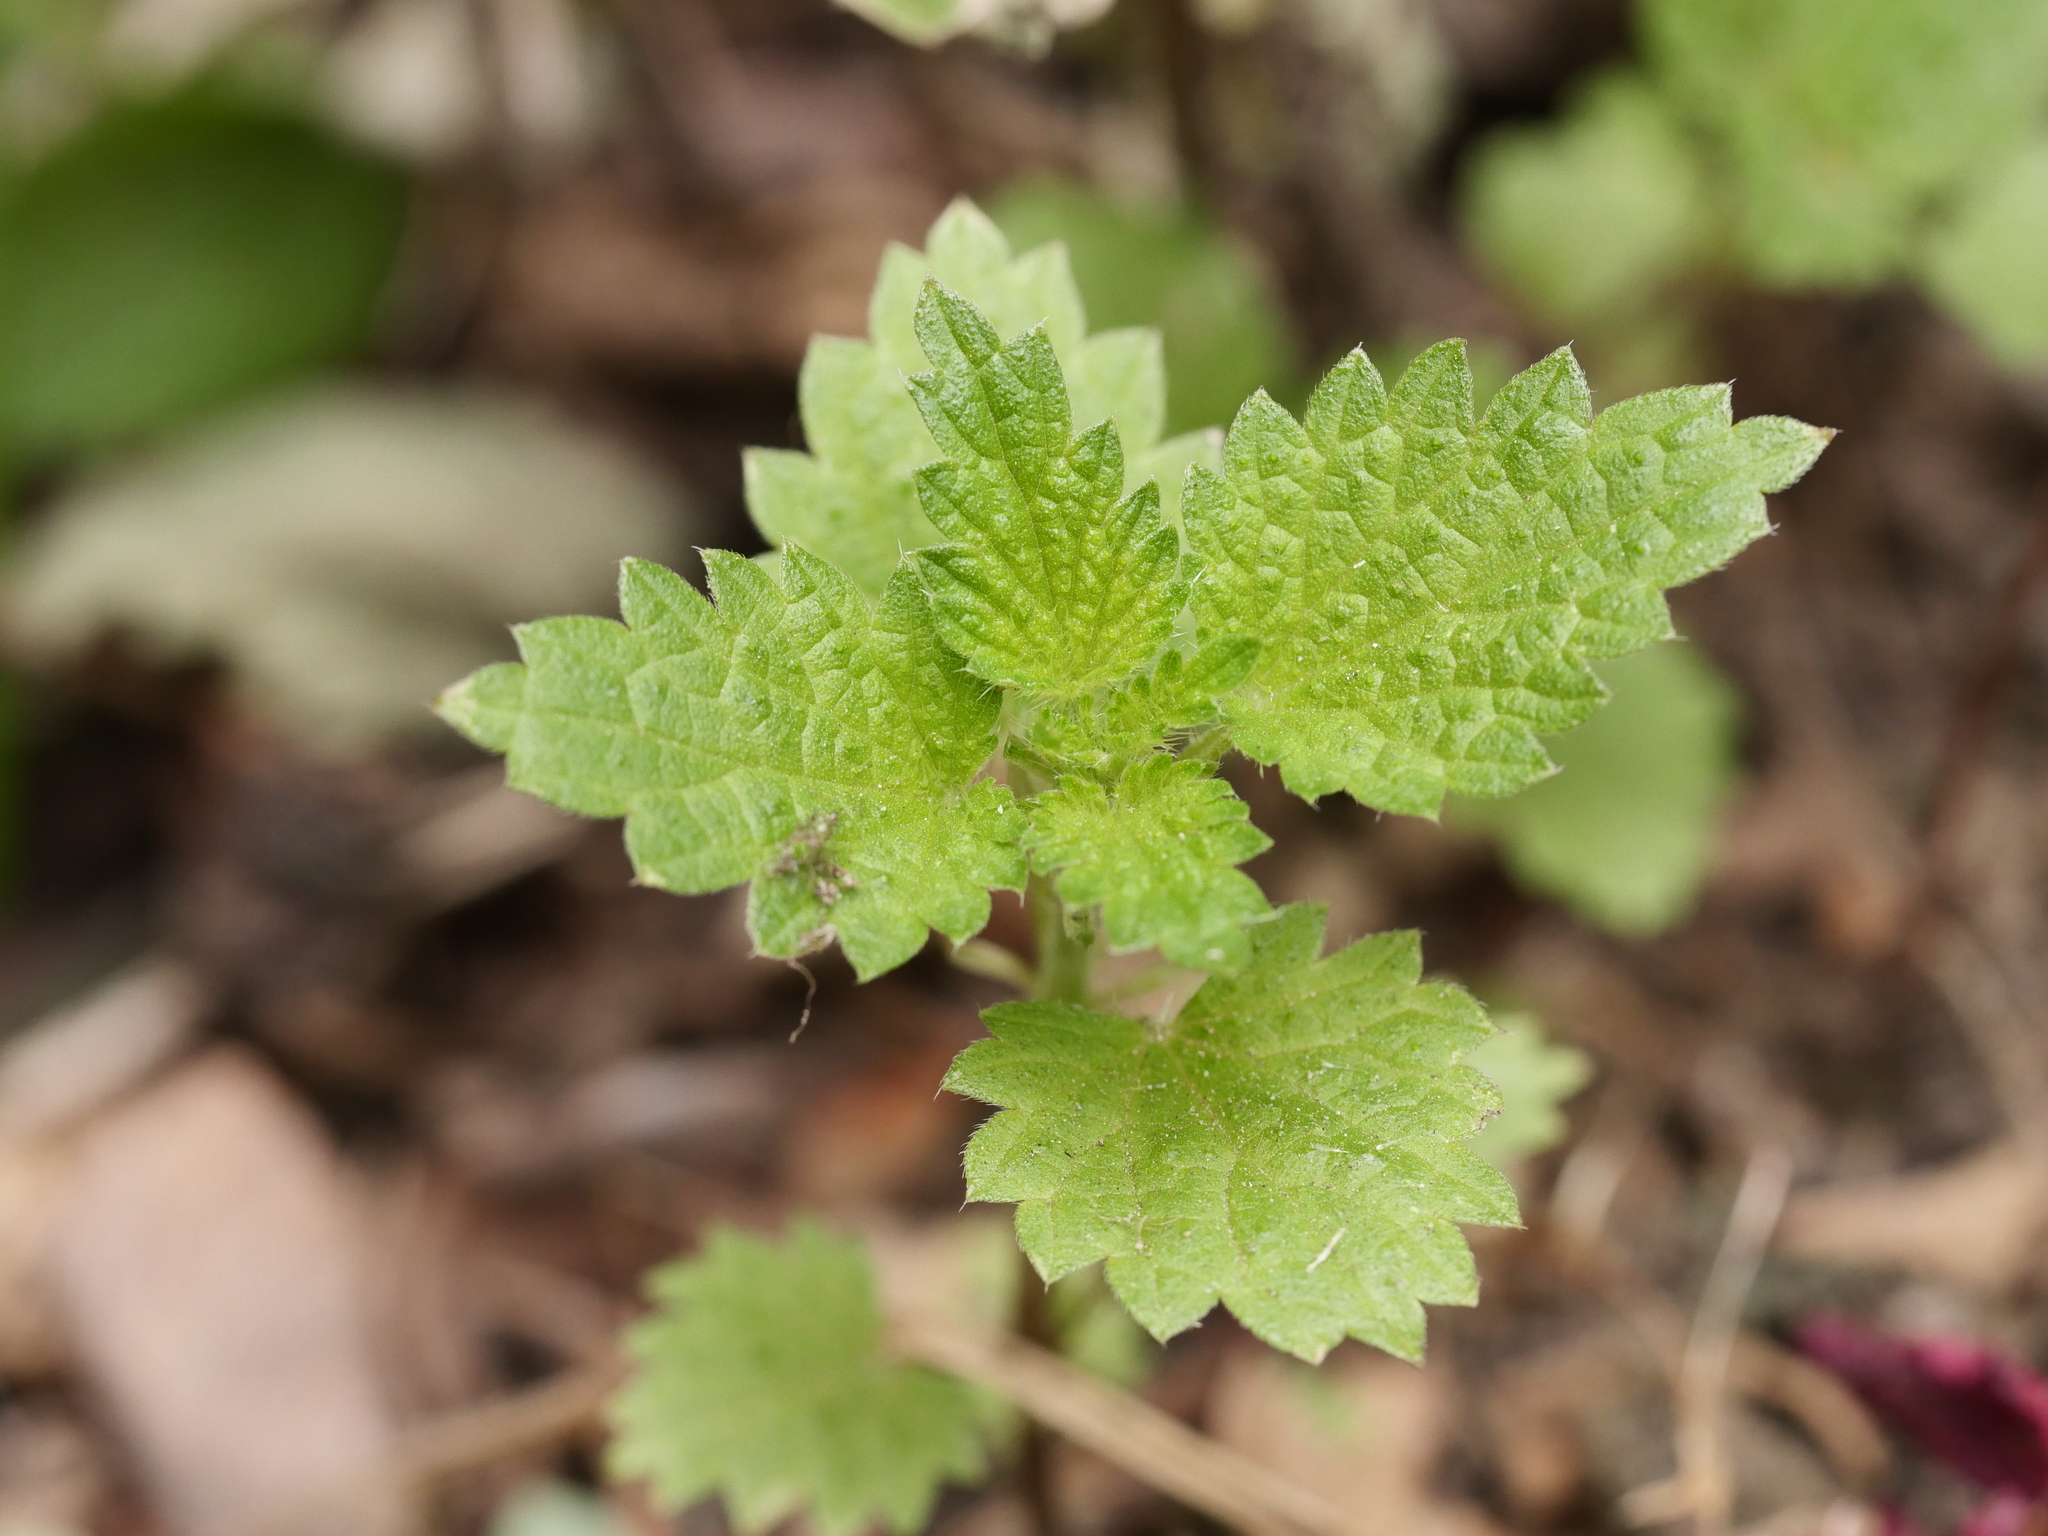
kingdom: Plantae
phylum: Tracheophyta
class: Magnoliopsida
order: Rosales
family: Urticaceae
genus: Urtica
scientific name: Urtica dioica
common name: Common nettle
